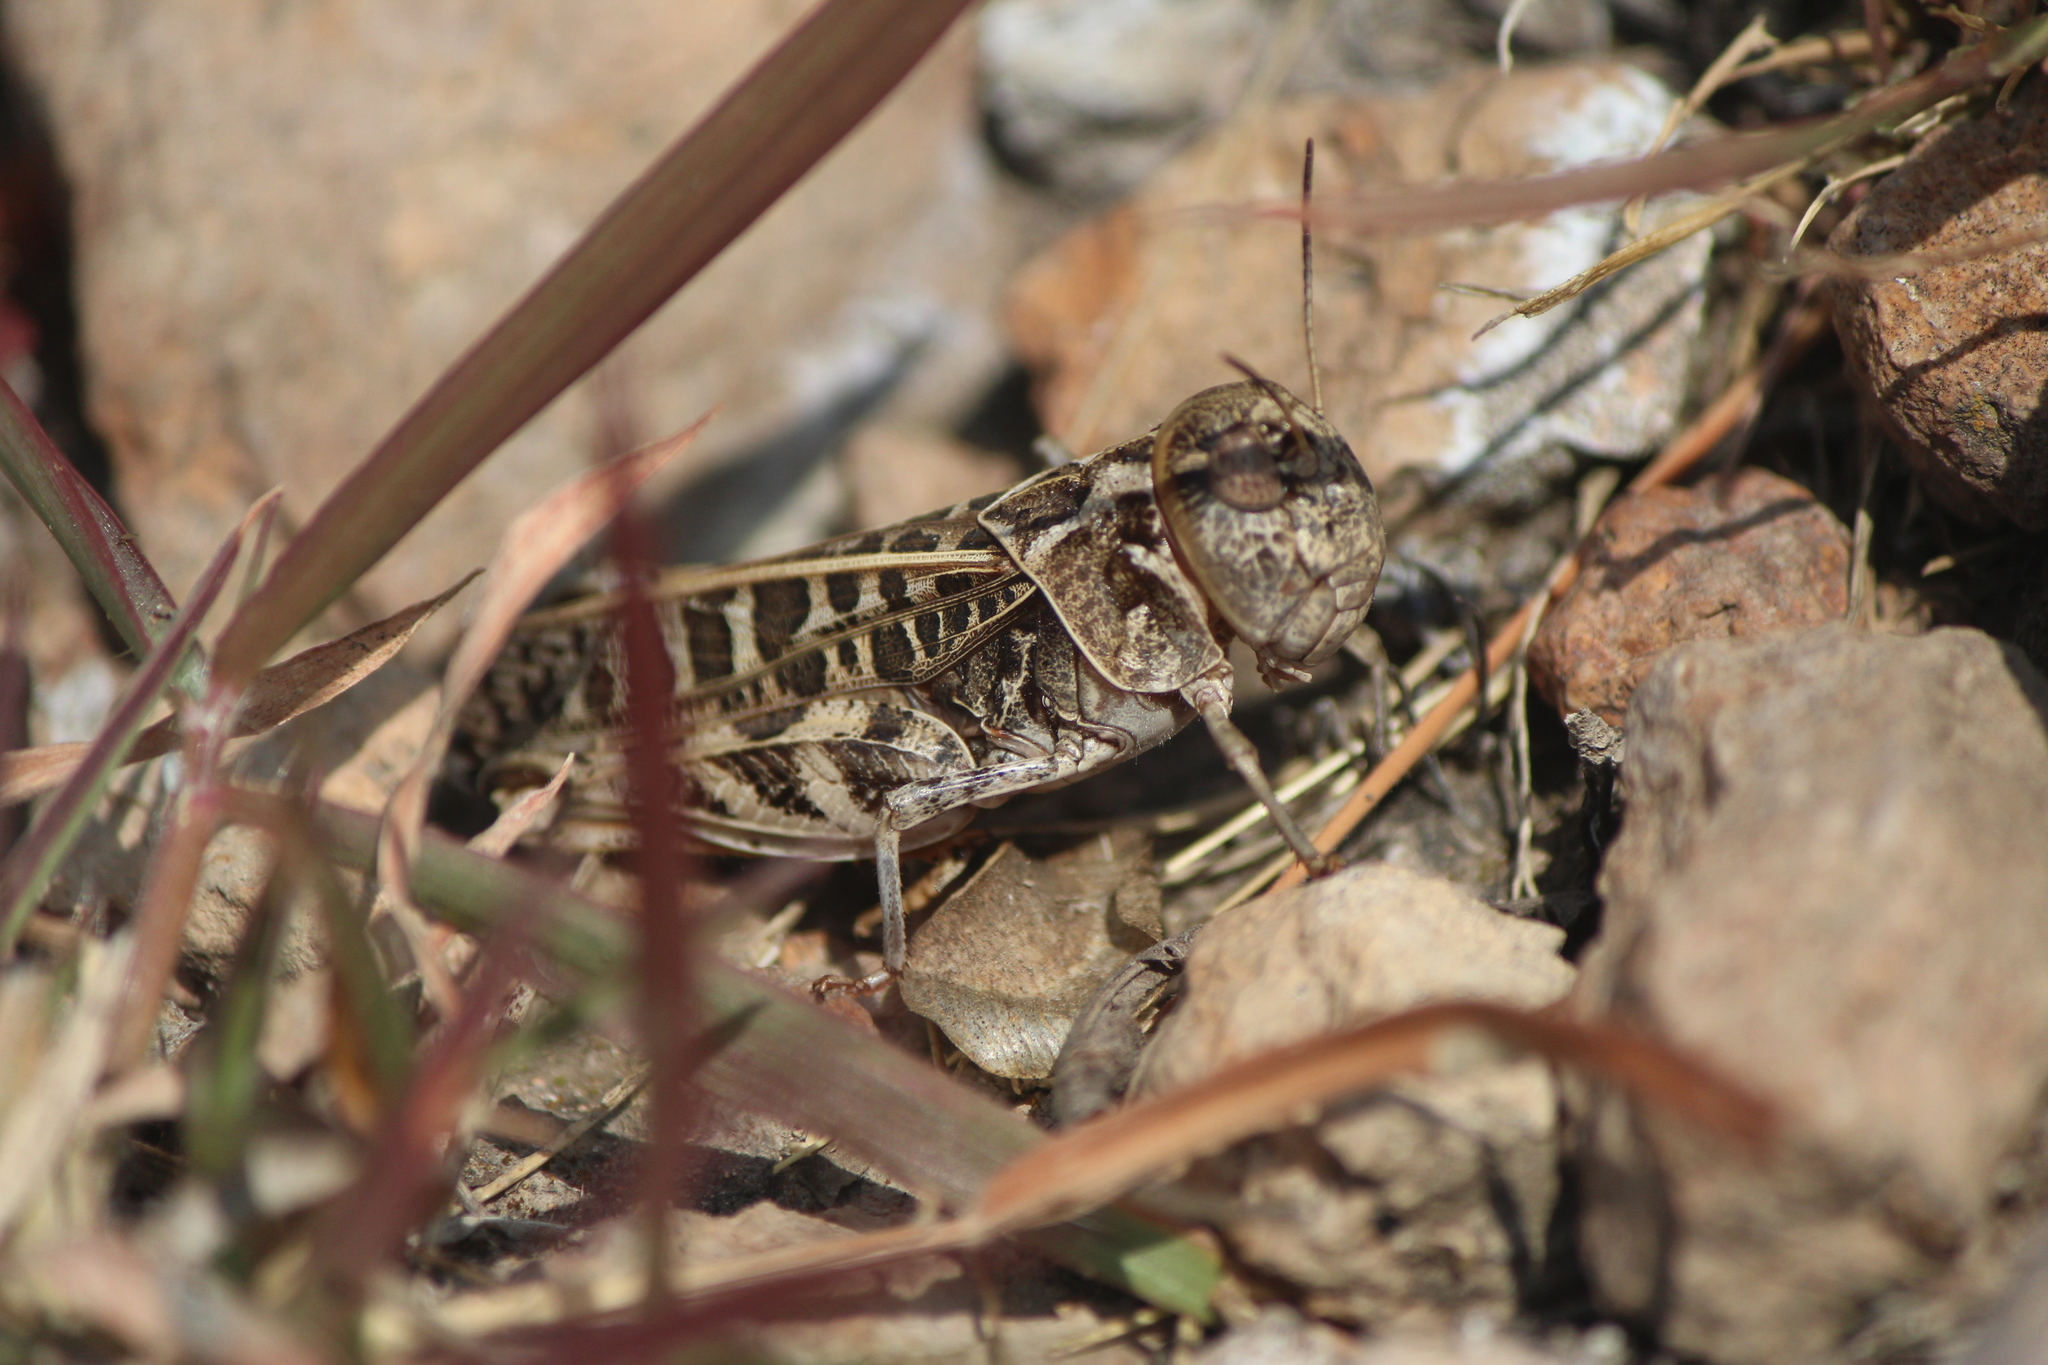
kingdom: Animalia
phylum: Arthropoda
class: Insecta
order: Orthoptera
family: Acrididae
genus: Hippiscus
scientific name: Hippiscus ocelote
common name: Wrinkled grasshopper
